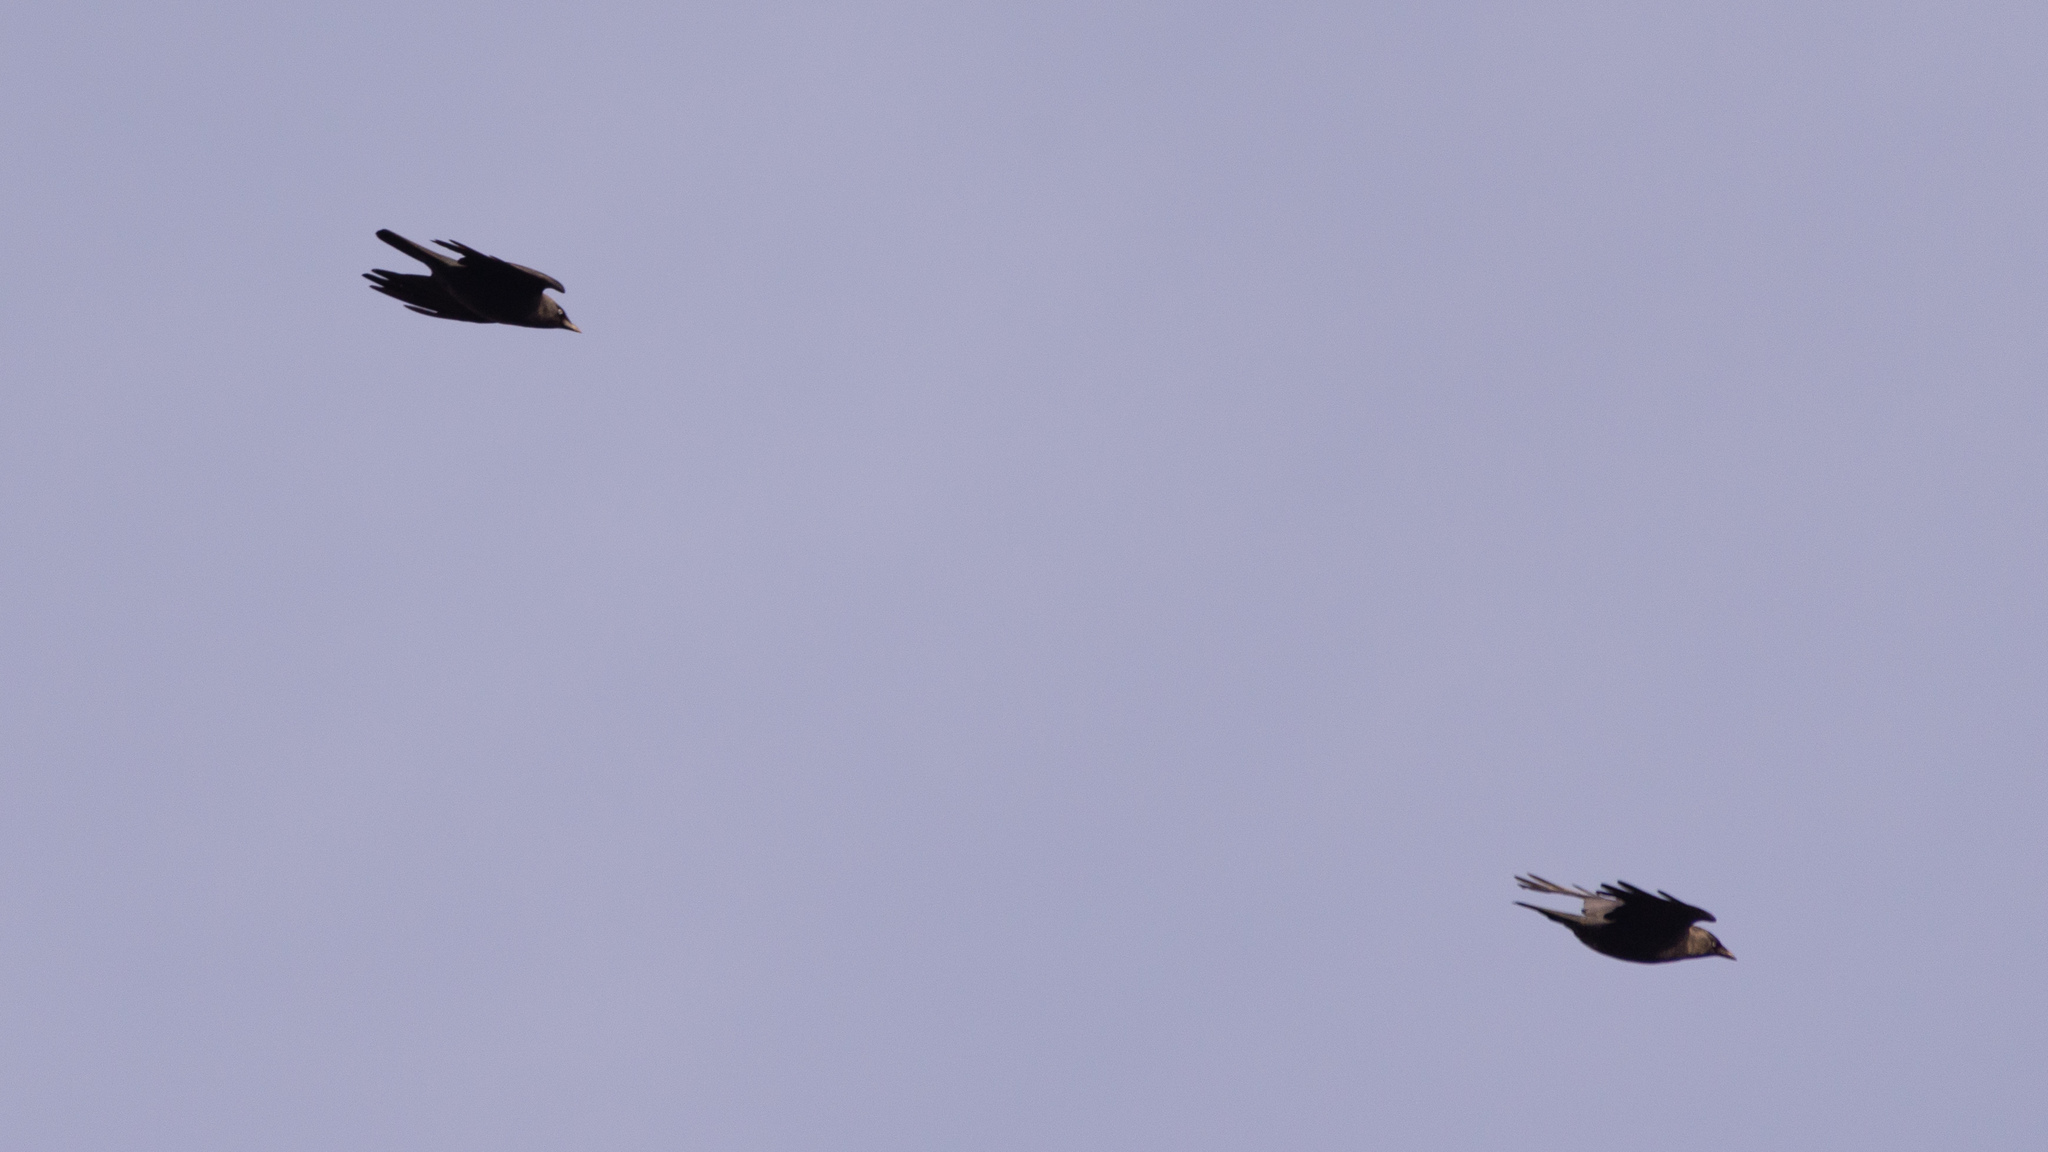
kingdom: Animalia
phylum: Chordata
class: Aves
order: Passeriformes
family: Corvidae
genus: Coloeus
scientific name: Coloeus monedula
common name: Western jackdaw
